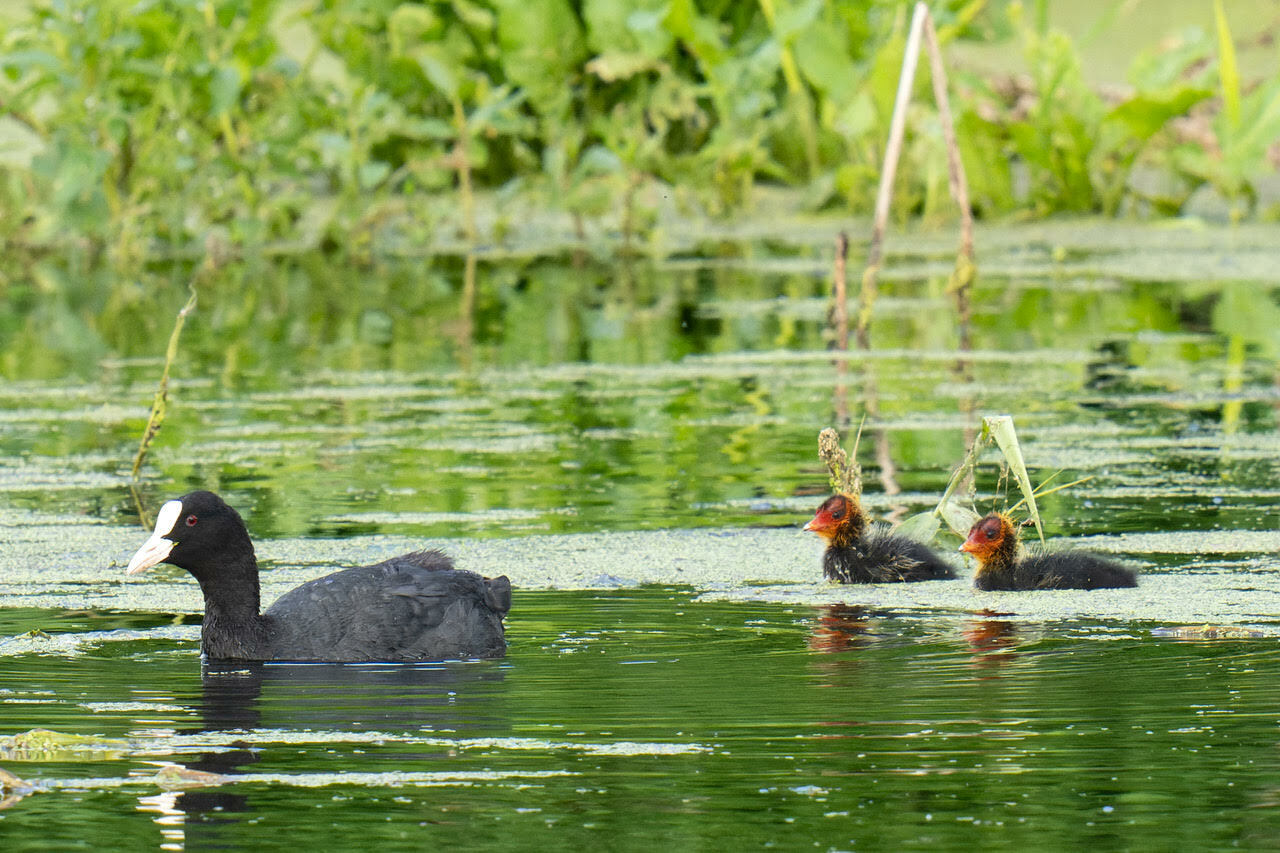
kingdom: Animalia
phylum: Chordata
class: Aves
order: Gruiformes
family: Rallidae
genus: Fulica
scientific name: Fulica atra
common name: Eurasian coot
